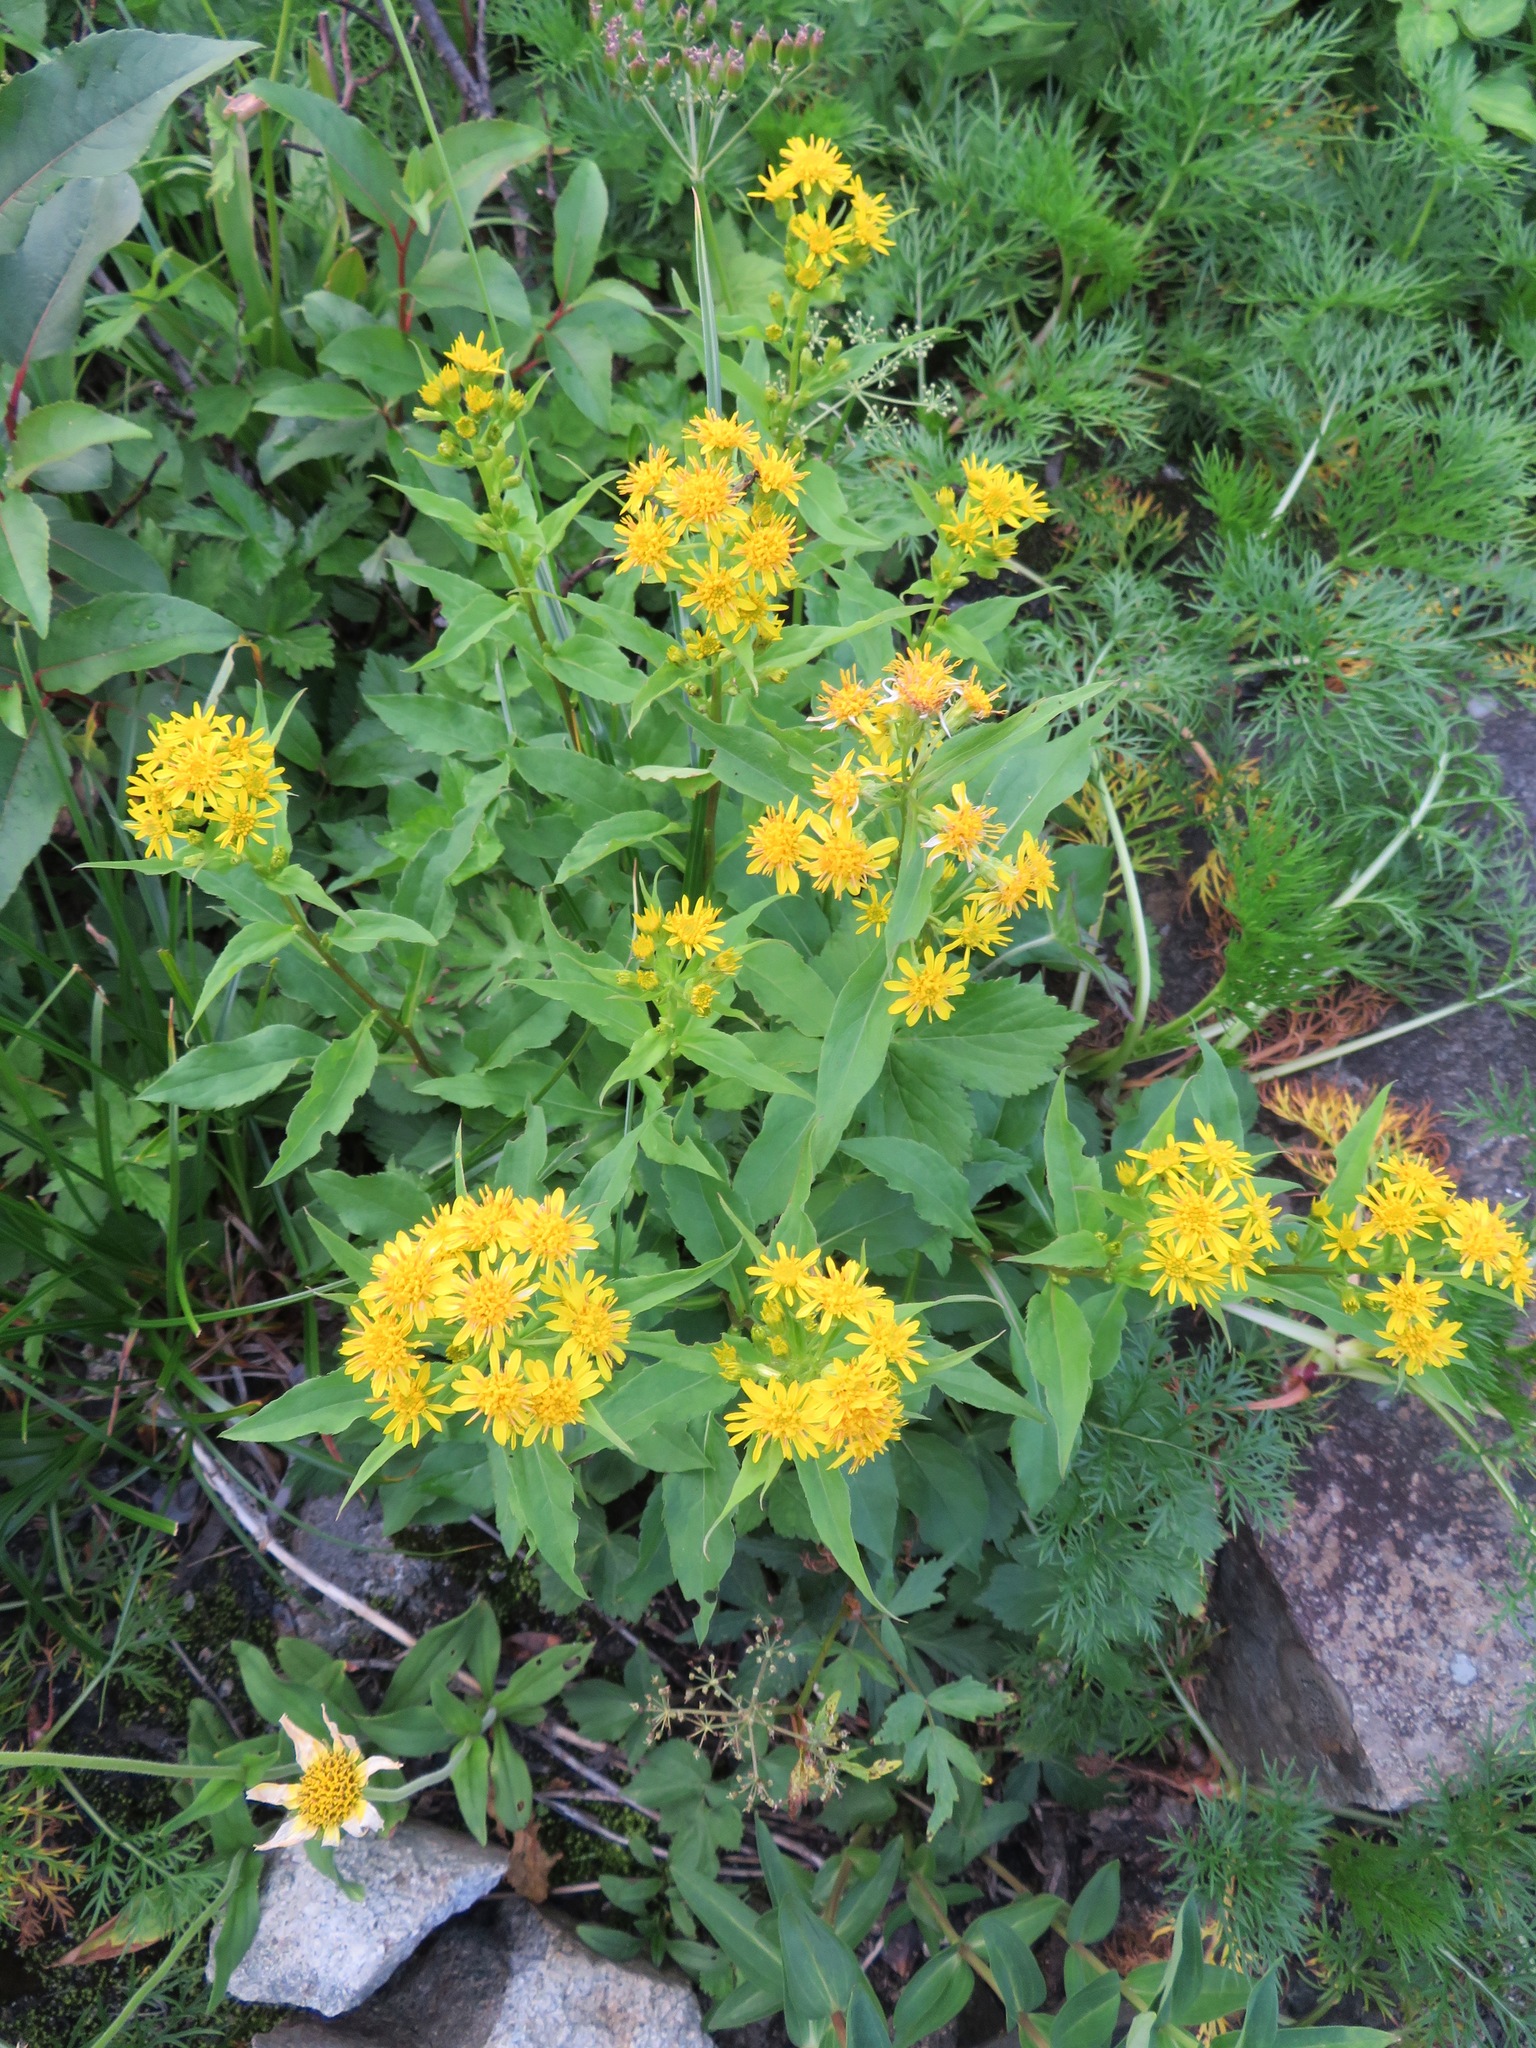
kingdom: Plantae
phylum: Tracheophyta
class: Magnoliopsida
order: Asterales
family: Asteraceae
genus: Solidago
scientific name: Solidago decurrens
